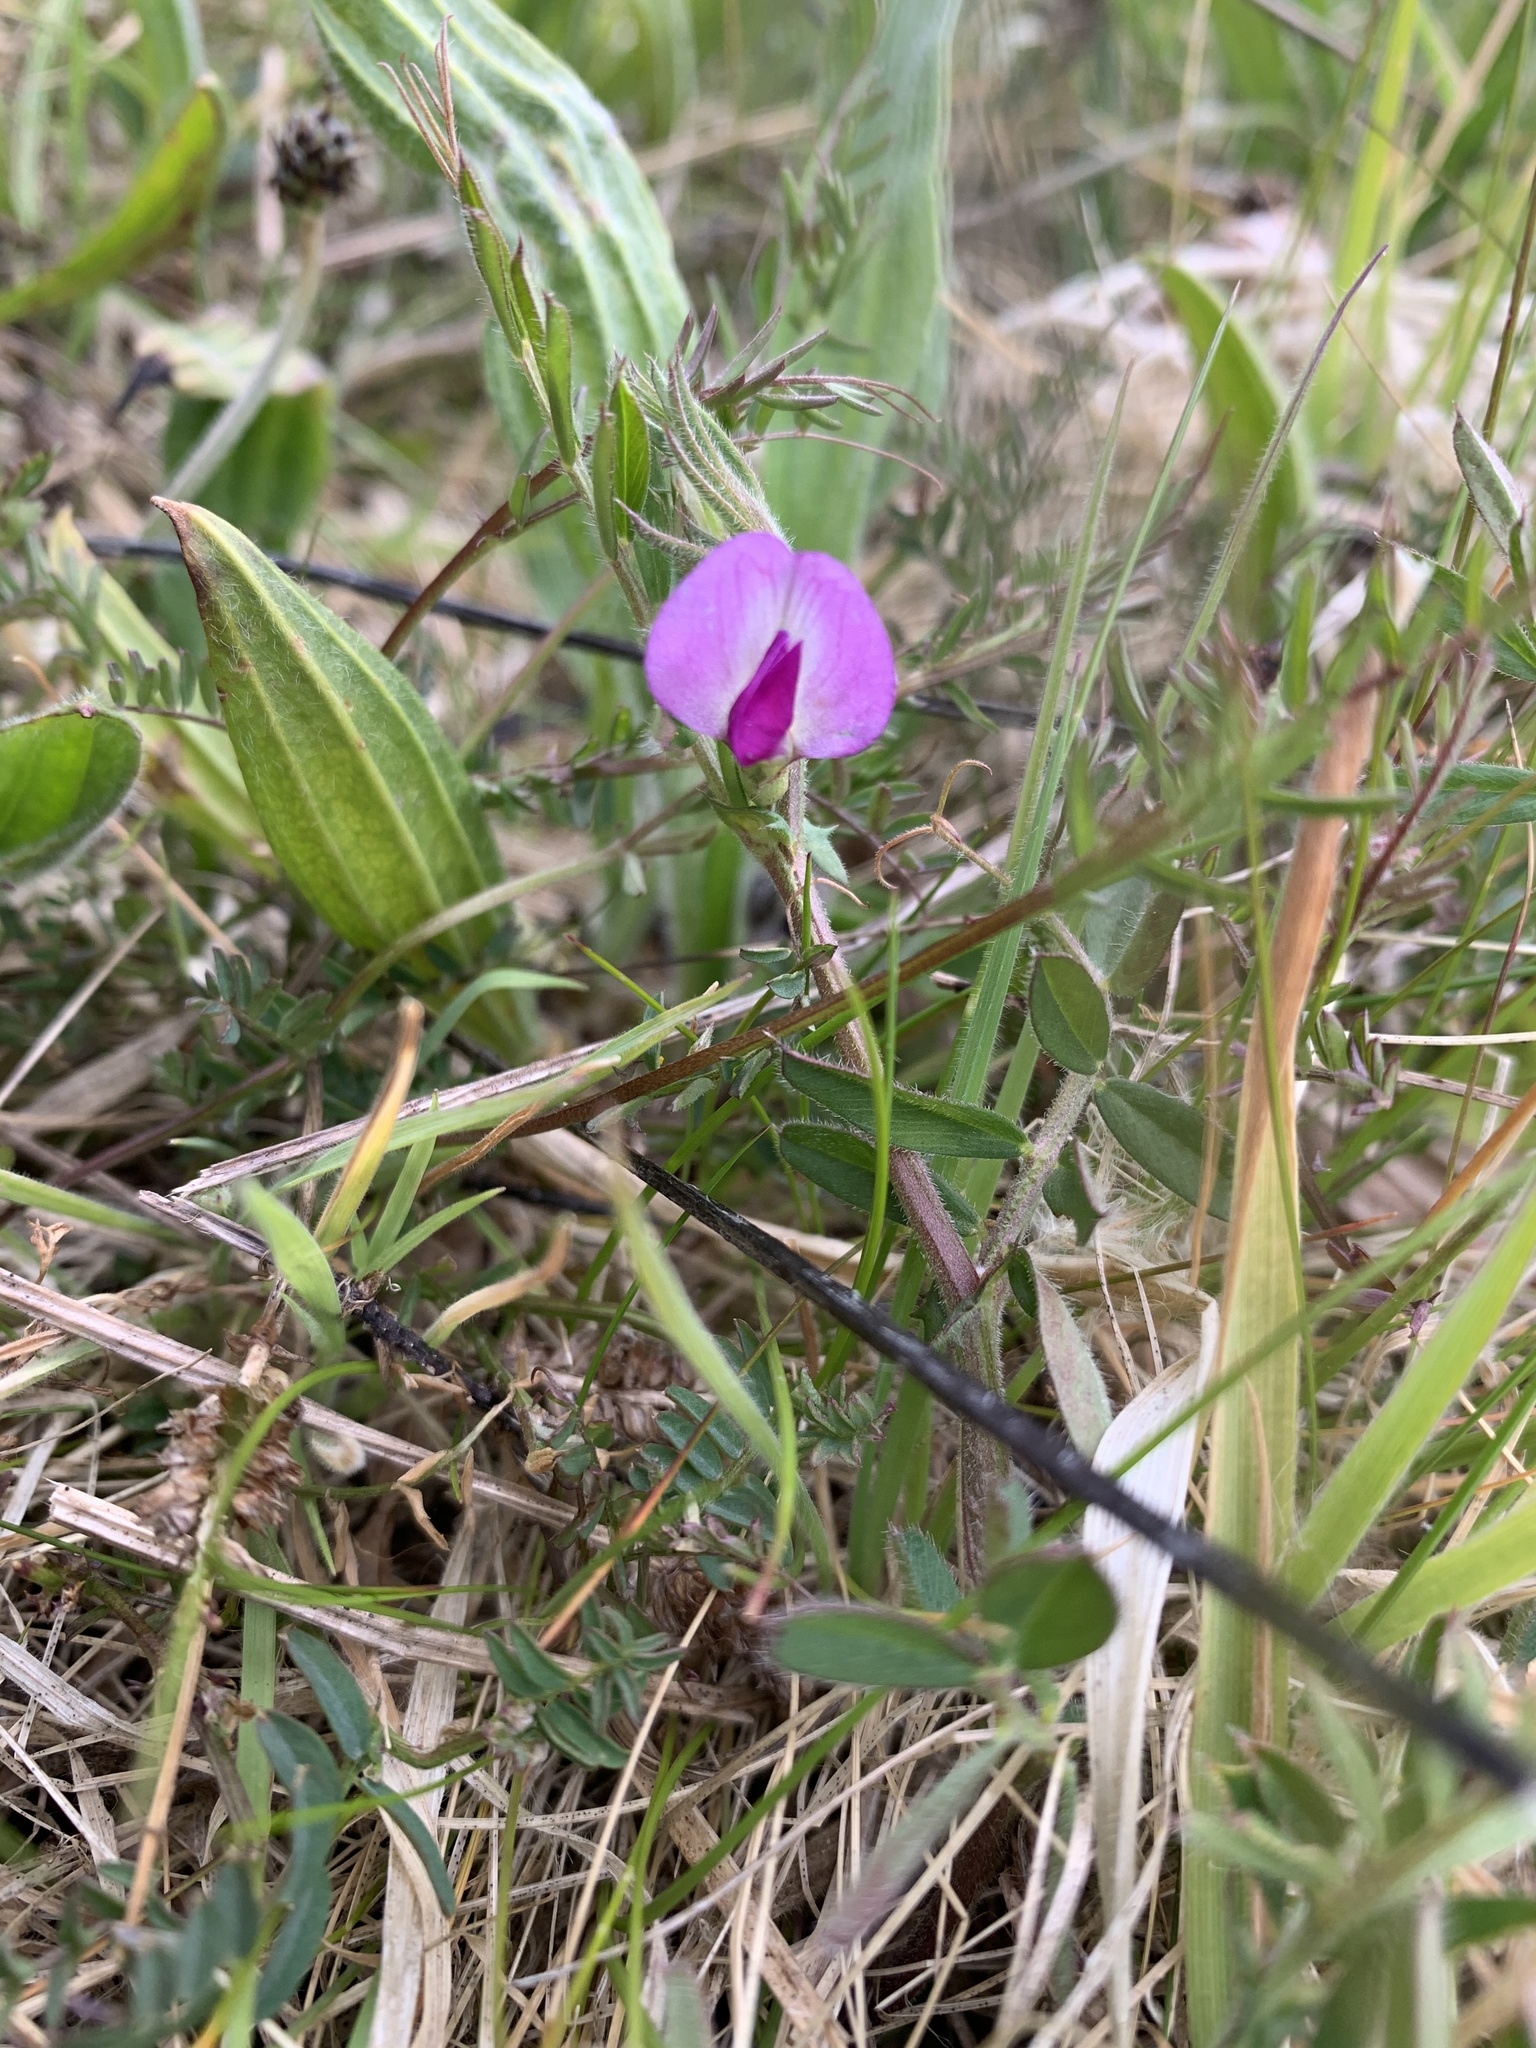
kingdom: Plantae
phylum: Tracheophyta
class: Magnoliopsida
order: Fabales
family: Fabaceae
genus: Vicia
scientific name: Vicia sativa
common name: Garden vetch
